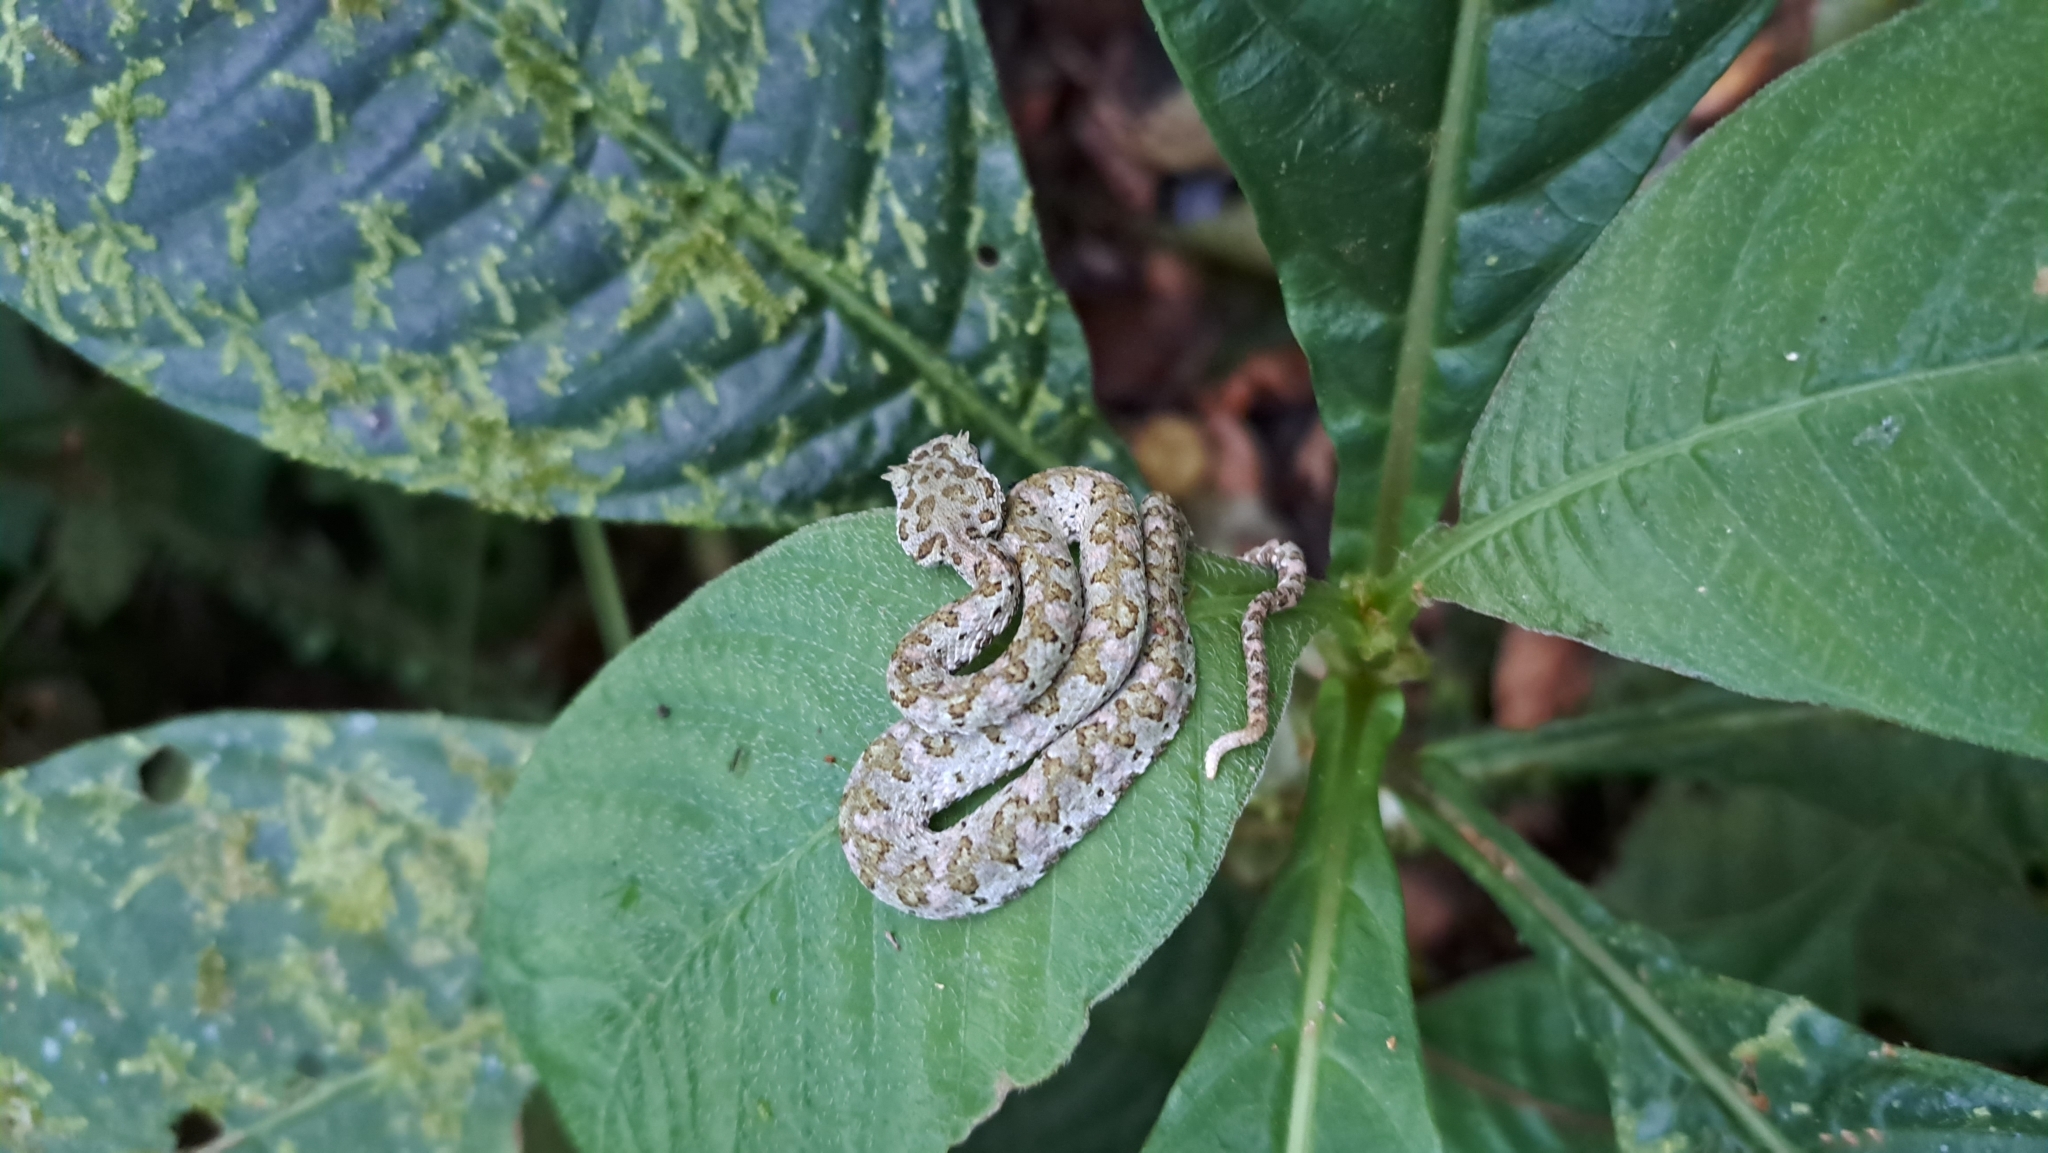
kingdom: Animalia
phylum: Chordata
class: Squamata
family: Viperidae
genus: Bothriechis
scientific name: Bothriechis schlegelii
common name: Eyelash viper
